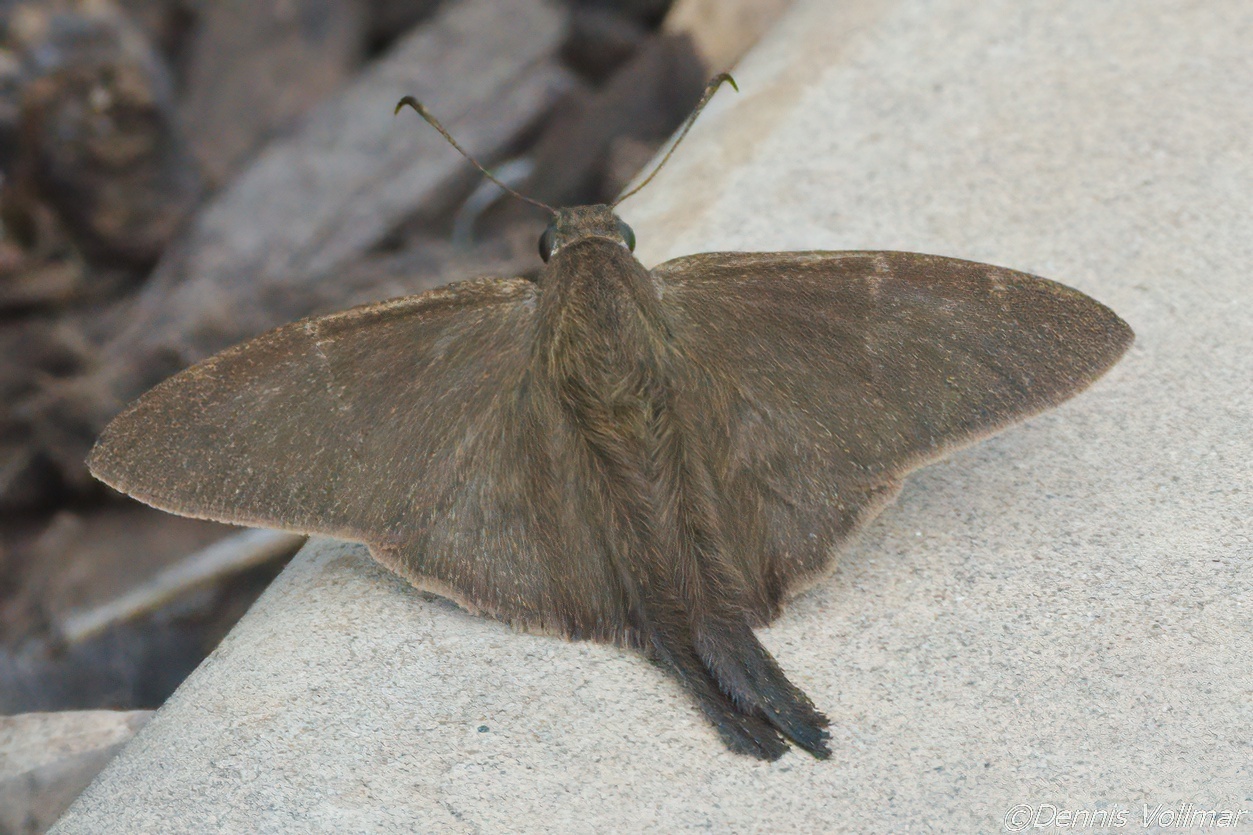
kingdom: Animalia
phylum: Arthropoda
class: Insecta
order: Lepidoptera
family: Hesperiidae
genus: Urbanus
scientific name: Urbanus procne
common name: Brown longtail
